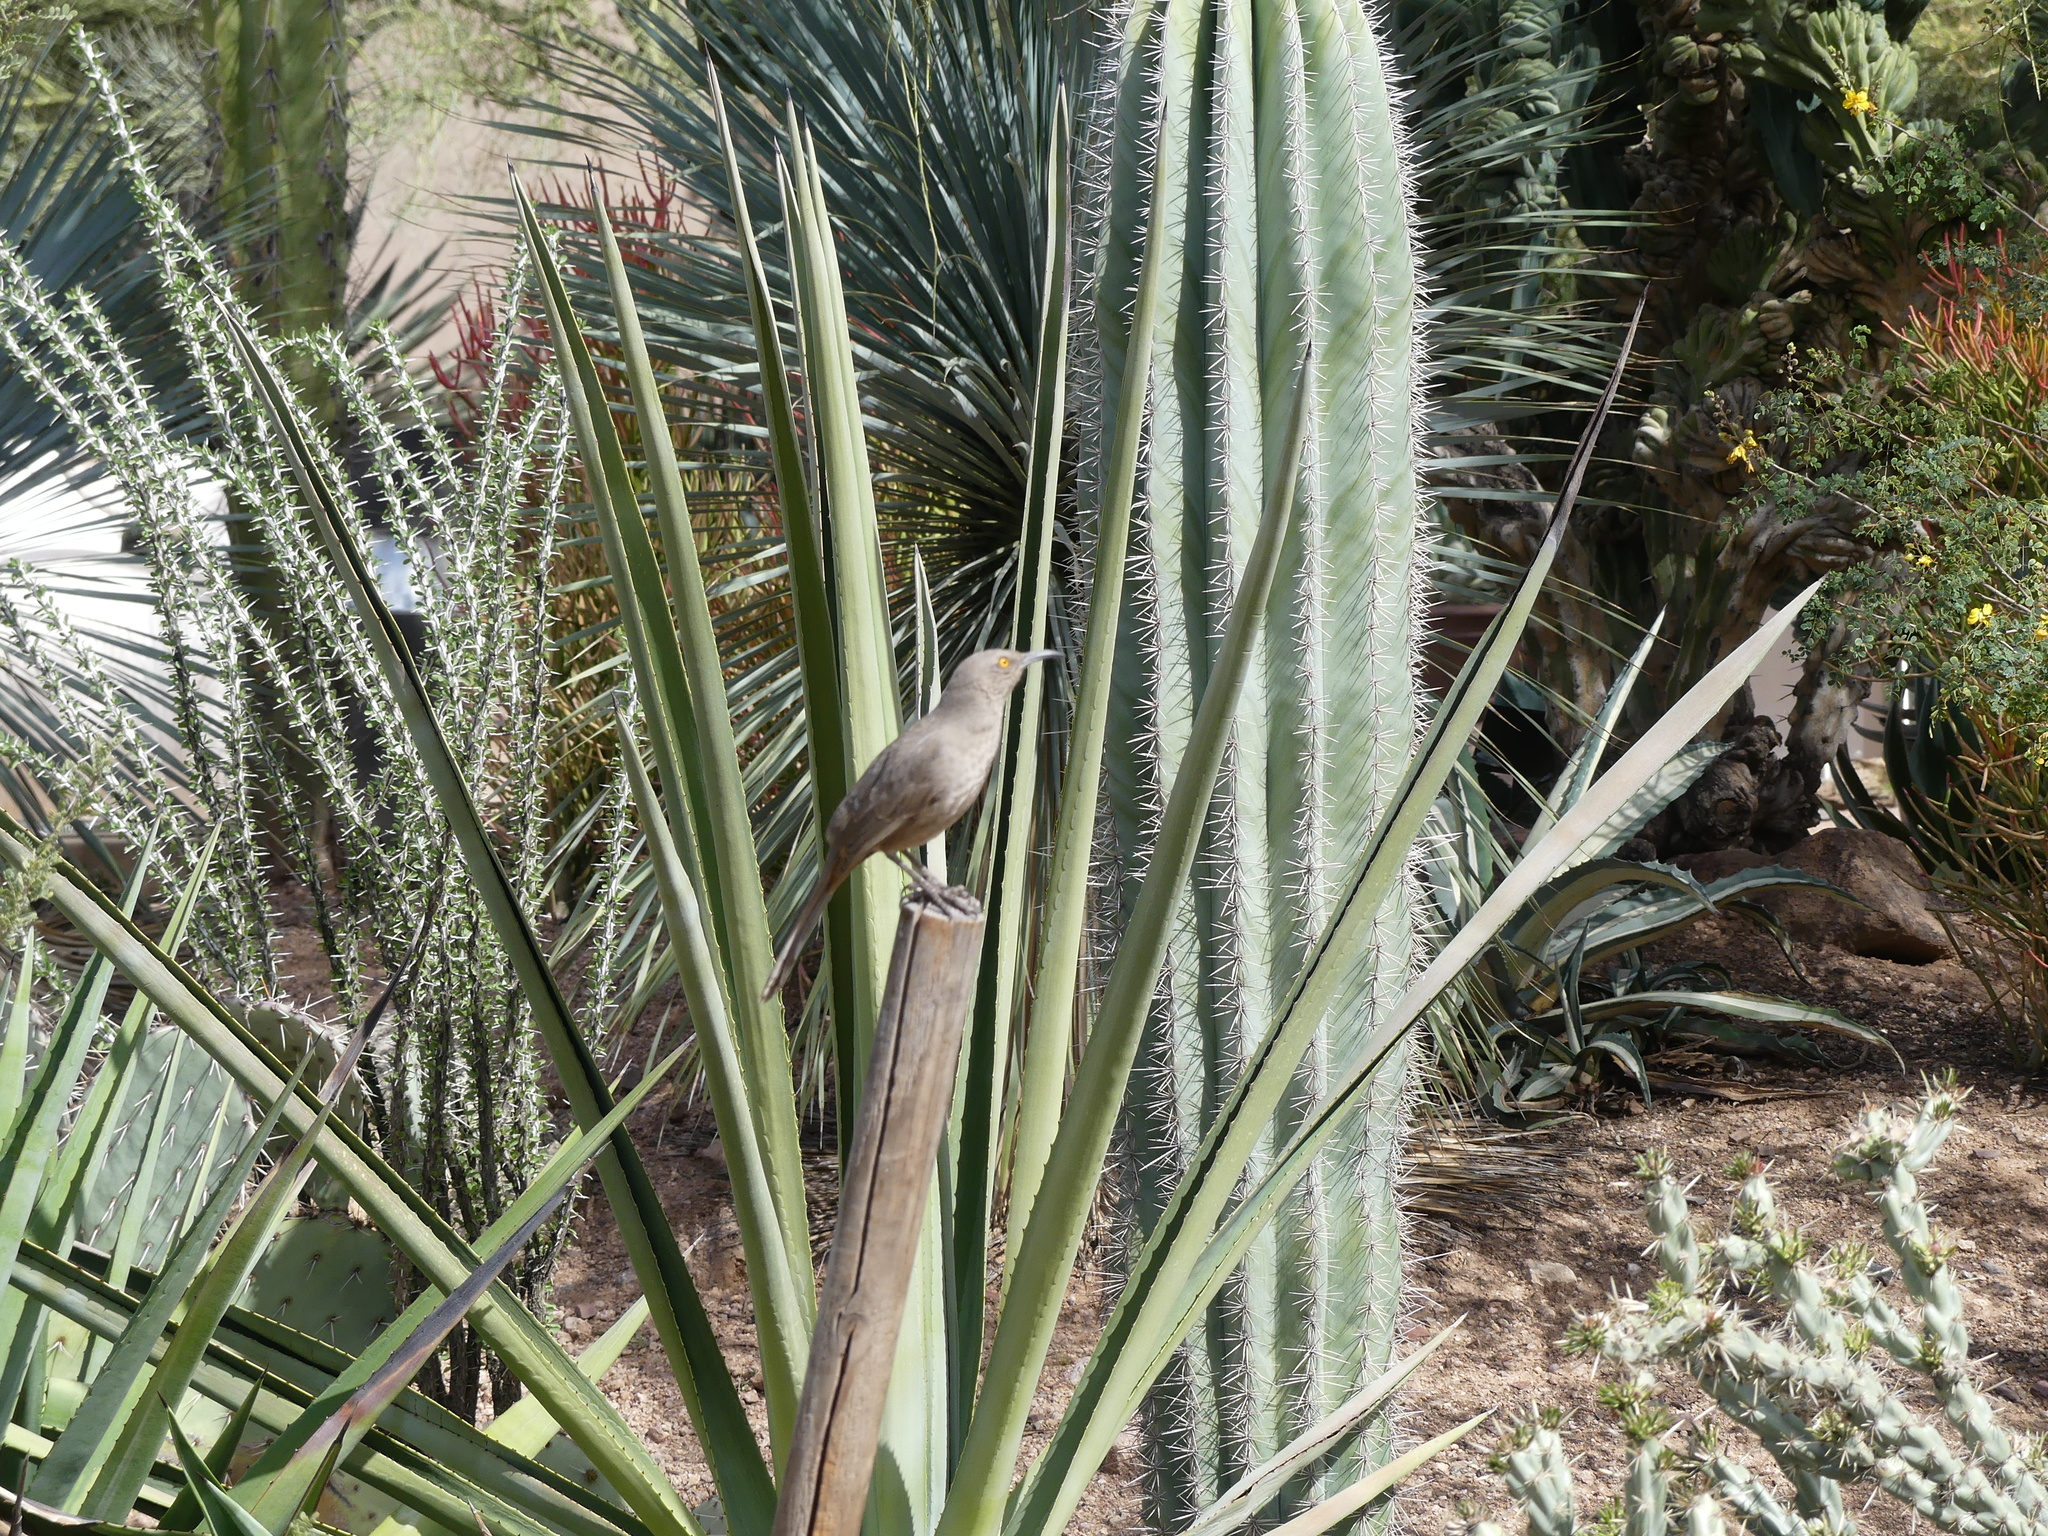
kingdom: Animalia
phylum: Chordata
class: Aves
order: Passeriformes
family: Mimidae
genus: Toxostoma
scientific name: Toxostoma curvirostre
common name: Curve-billed thrasher
